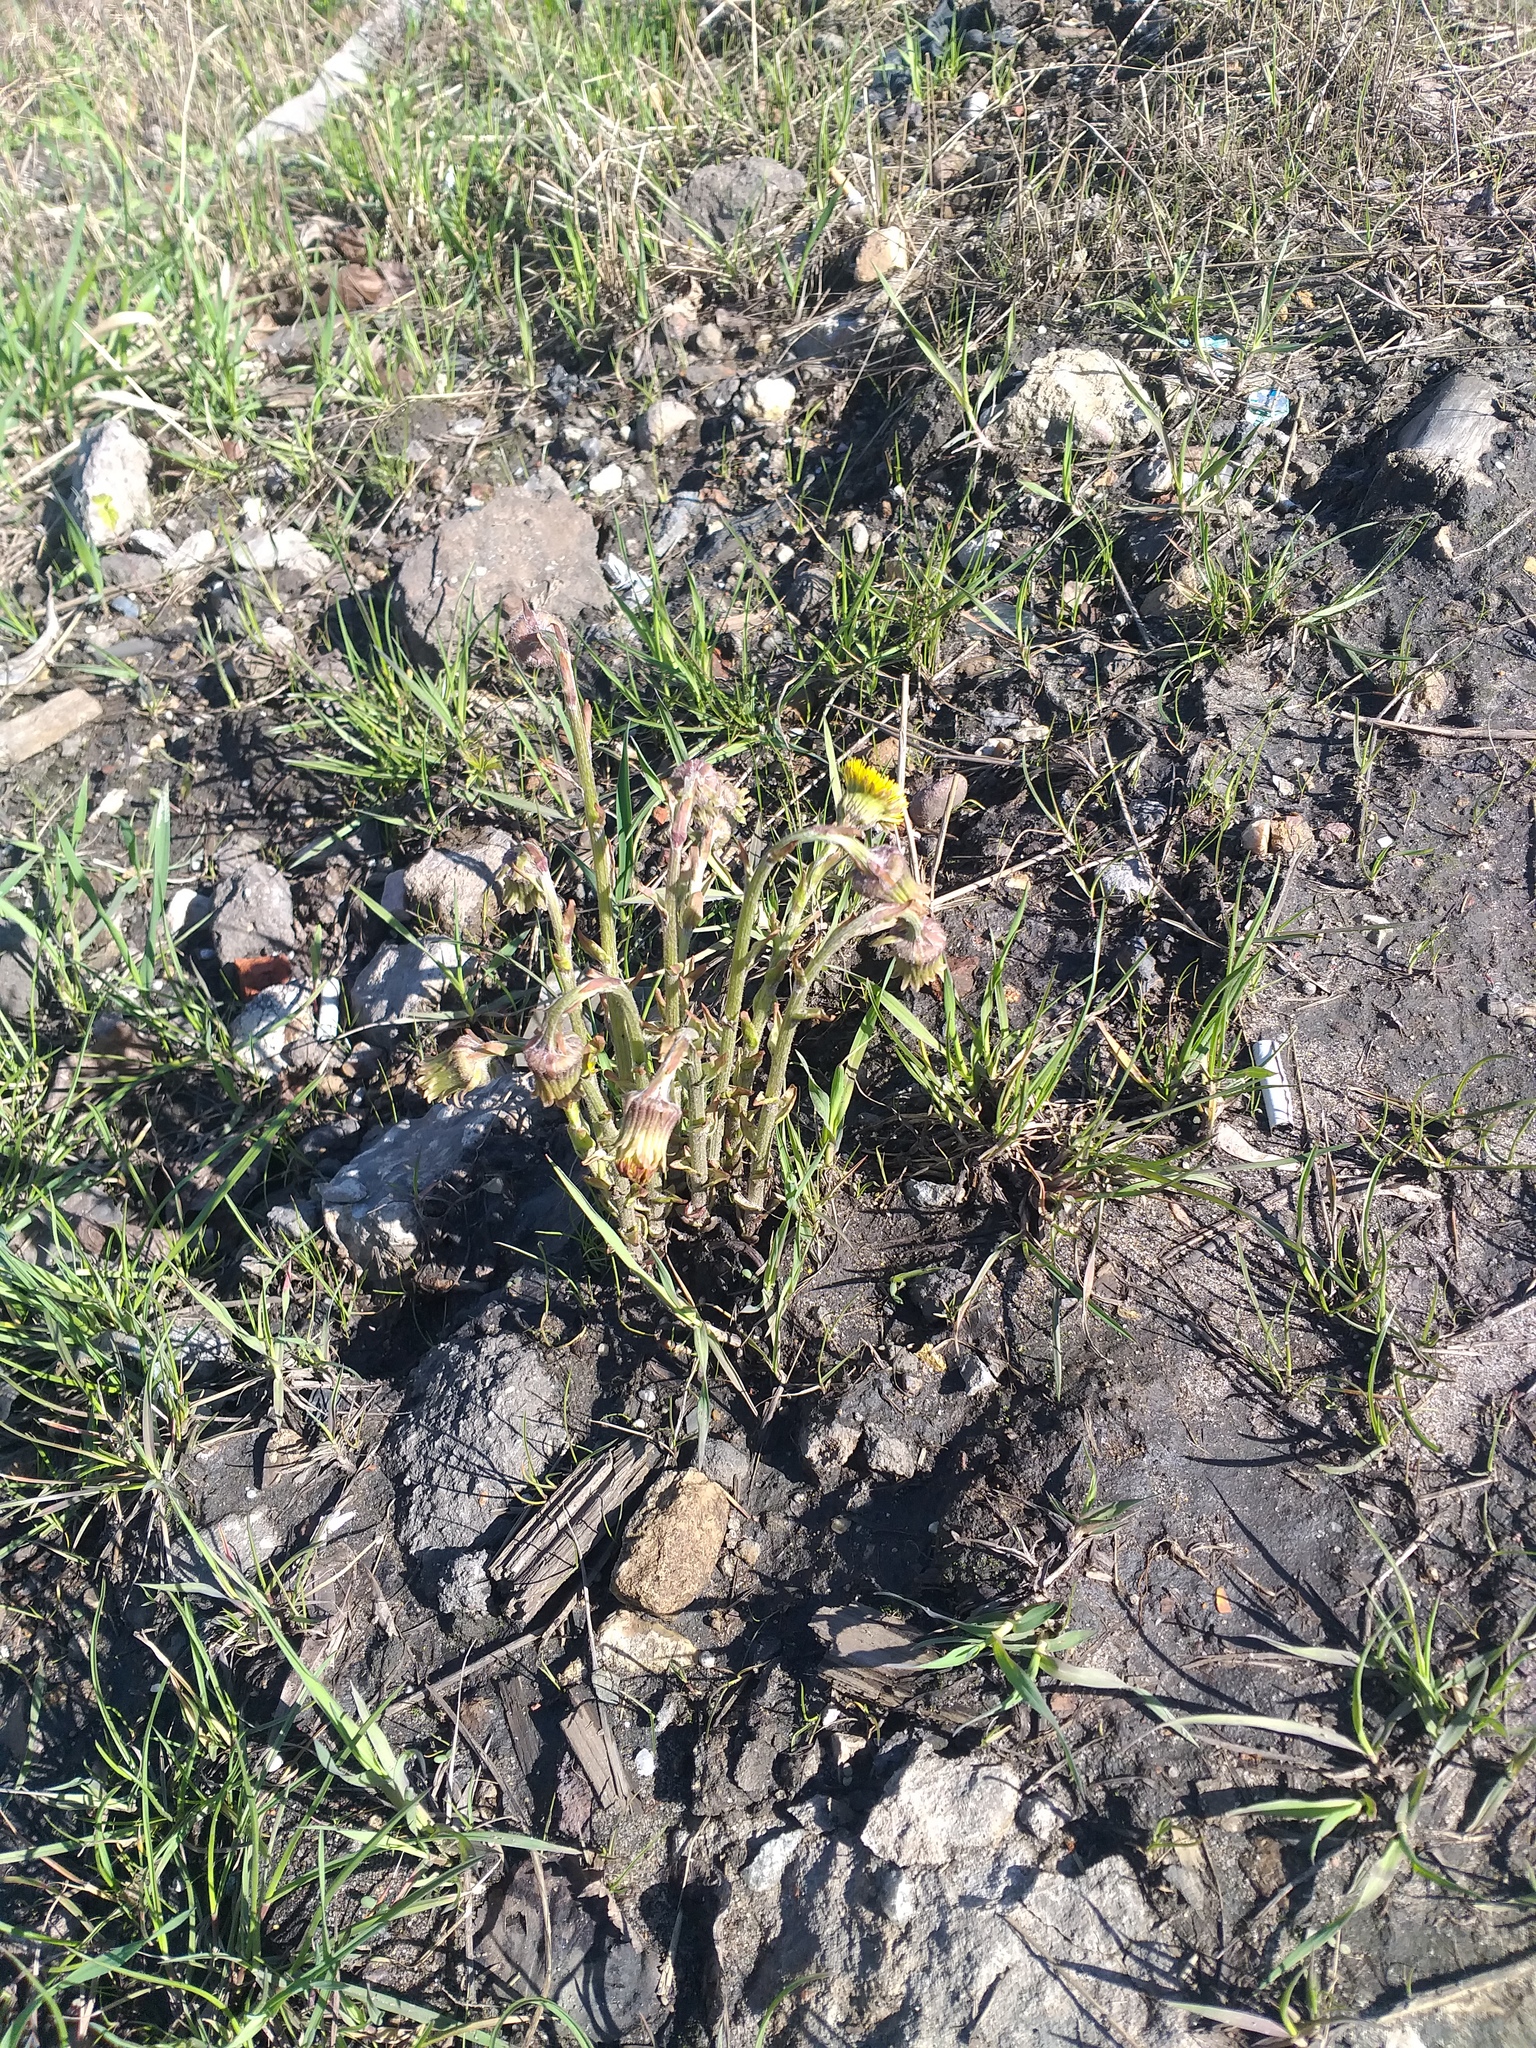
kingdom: Plantae
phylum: Tracheophyta
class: Magnoliopsida
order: Asterales
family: Asteraceae
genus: Tussilago
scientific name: Tussilago farfara
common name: Coltsfoot
